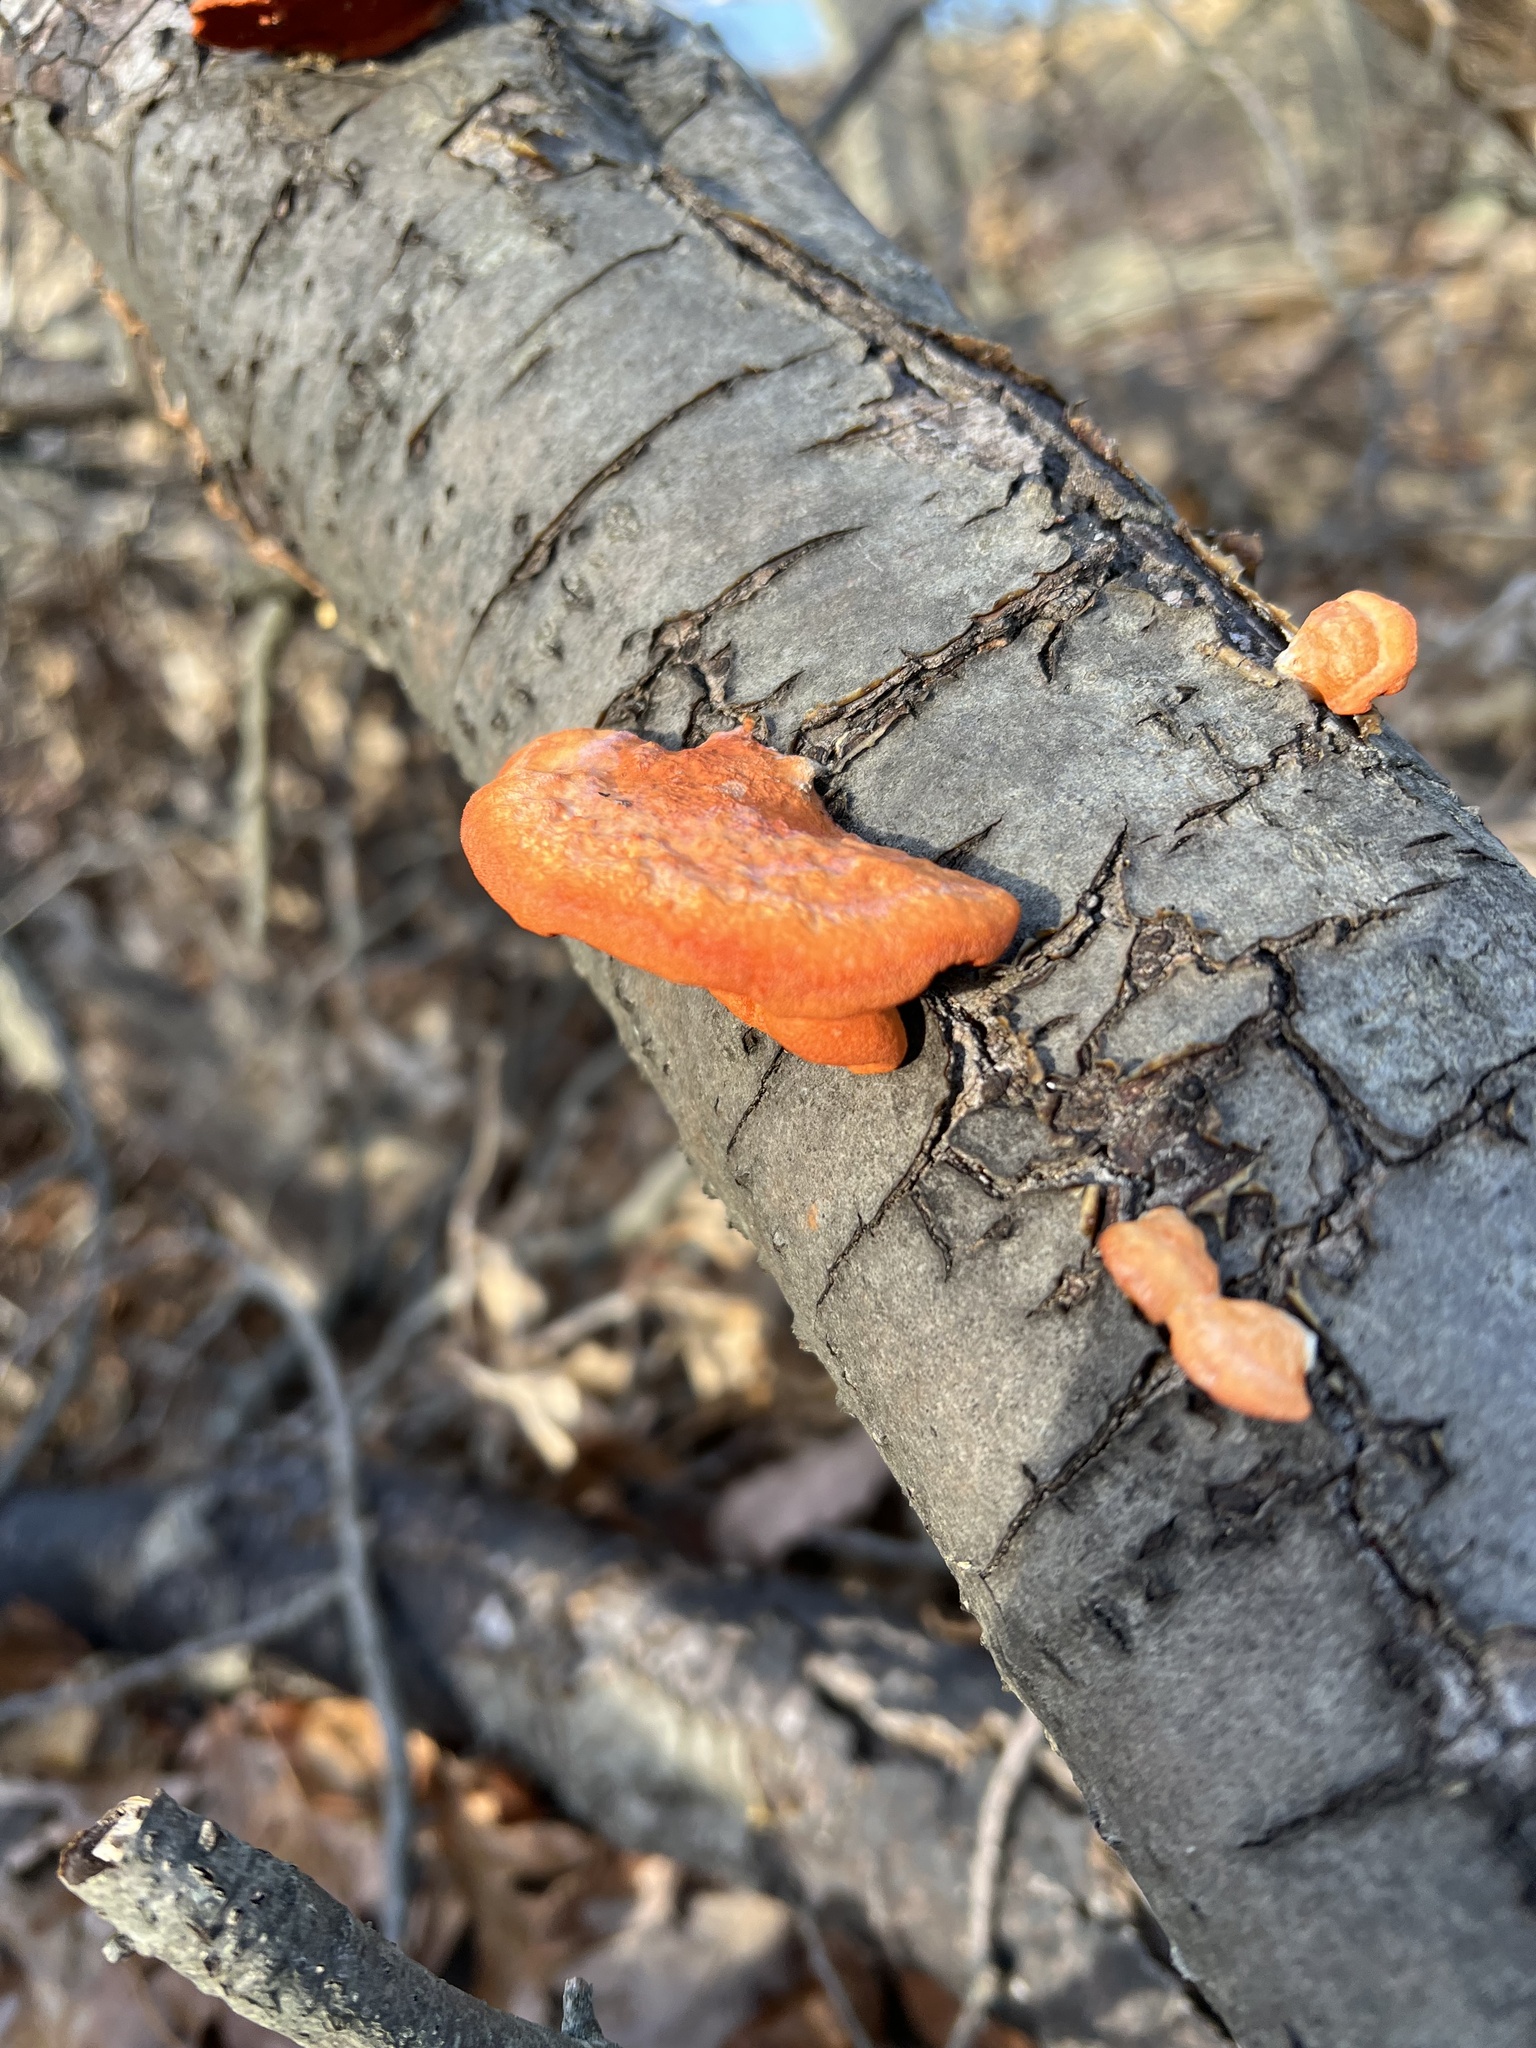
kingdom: Fungi
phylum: Basidiomycota
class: Agaricomycetes
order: Polyporales
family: Polyporaceae
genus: Trametes
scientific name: Trametes cinnabarina
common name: Northern cinnabar polypore
